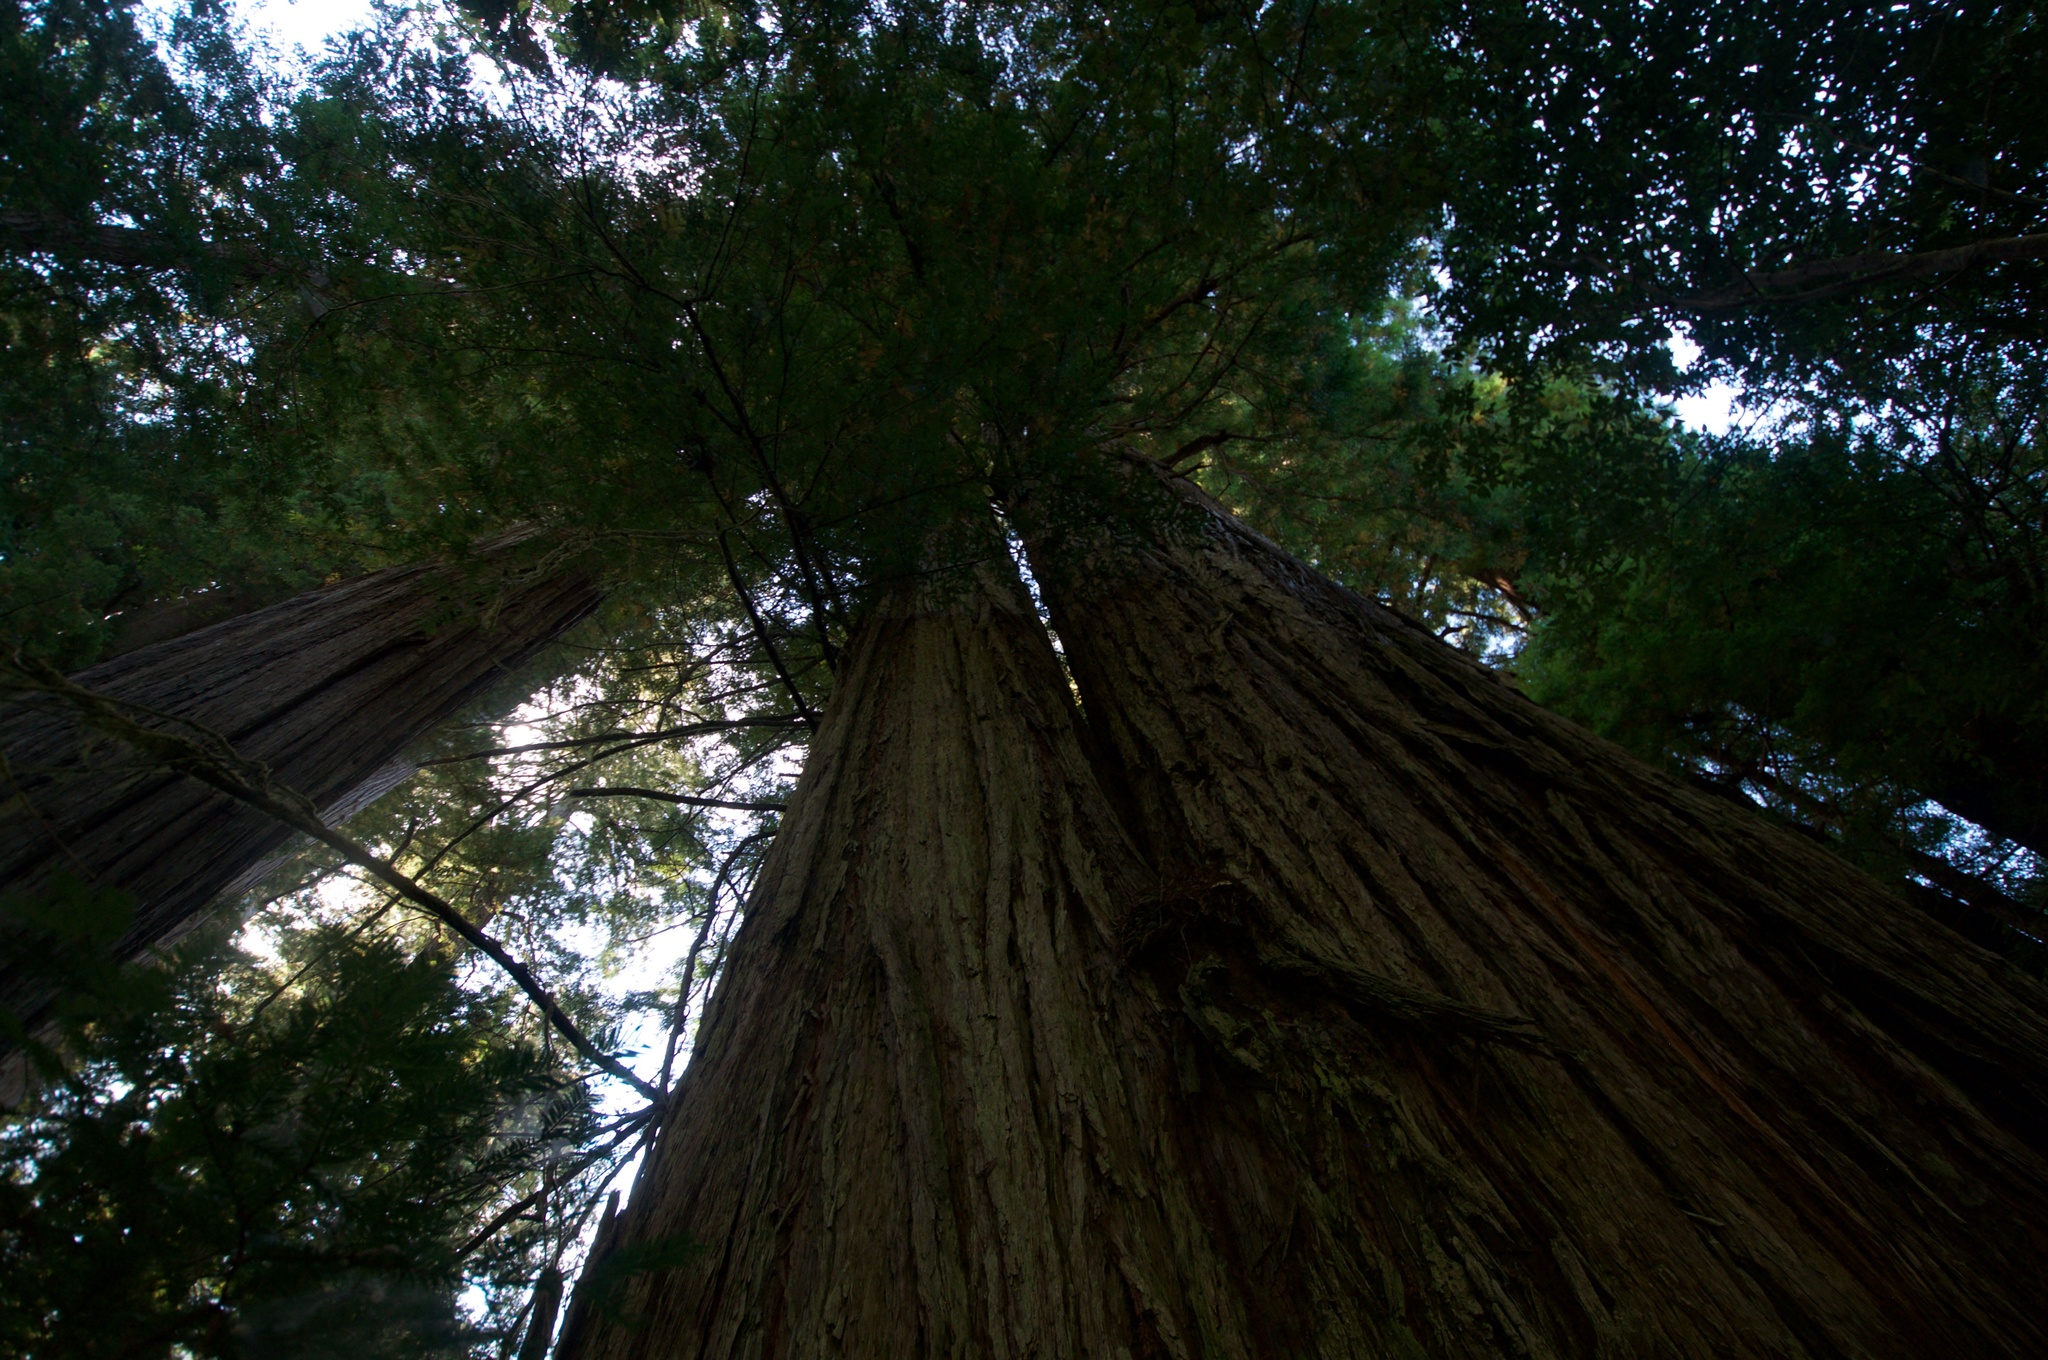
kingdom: Plantae
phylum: Tracheophyta
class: Pinopsida
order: Pinales
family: Cupressaceae
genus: Sequoia
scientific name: Sequoia sempervirens
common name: Coast redwood
